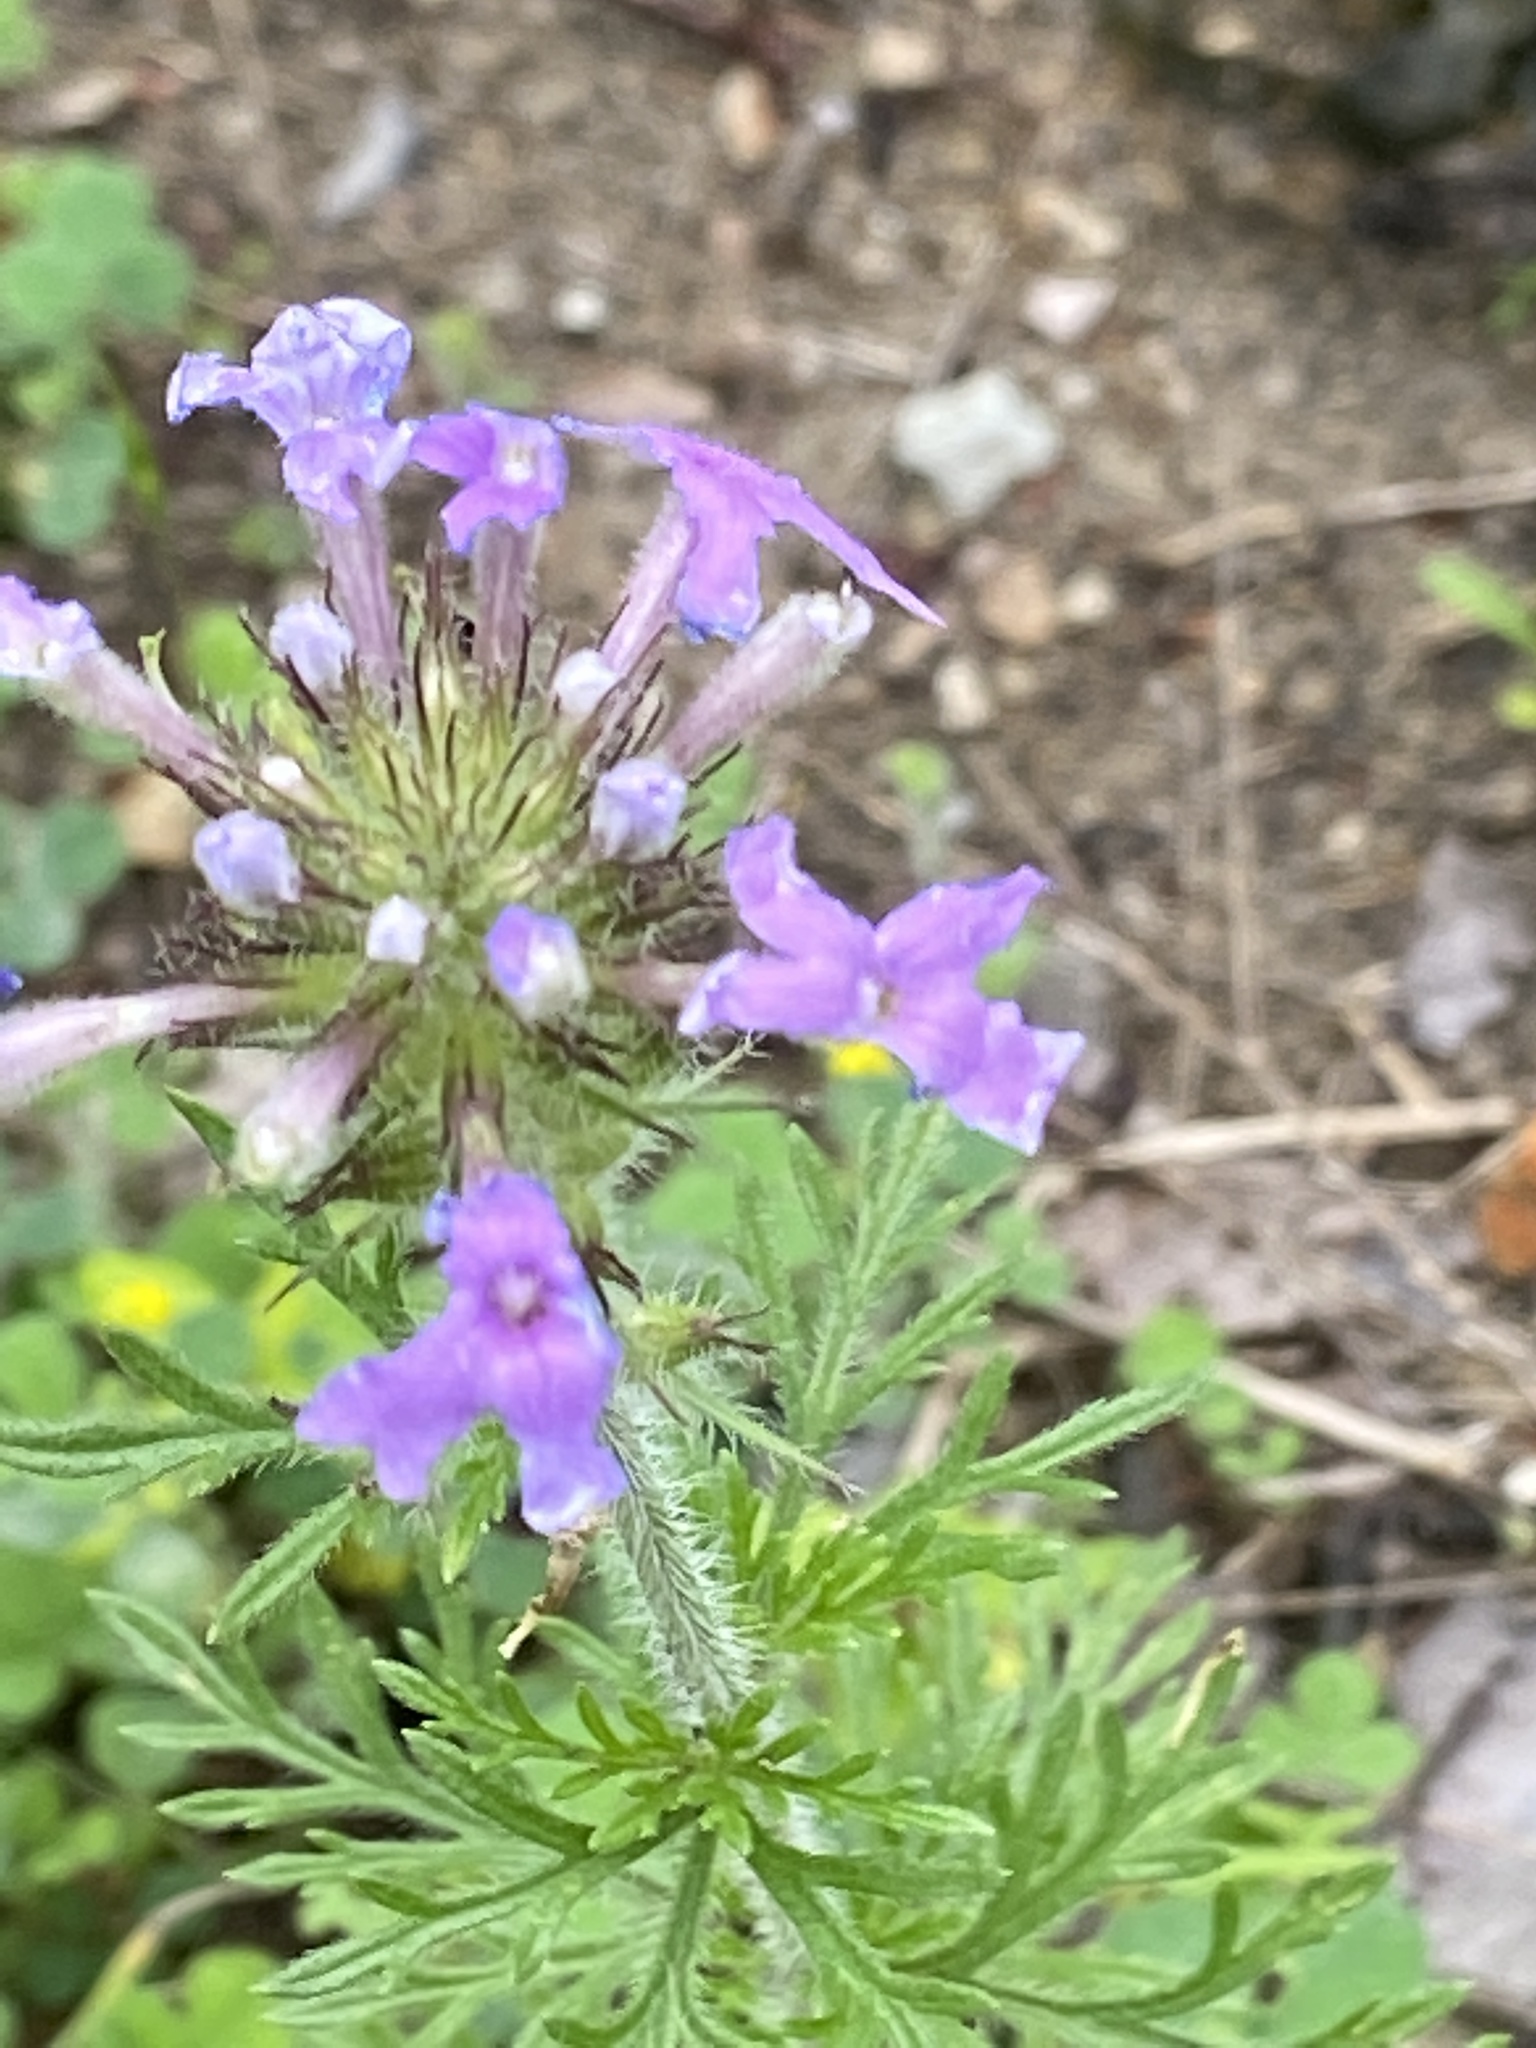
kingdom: Plantae
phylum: Tracheophyta
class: Magnoliopsida
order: Lamiales
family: Verbenaceae
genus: Verbena
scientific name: Verbena bipinnatifida
